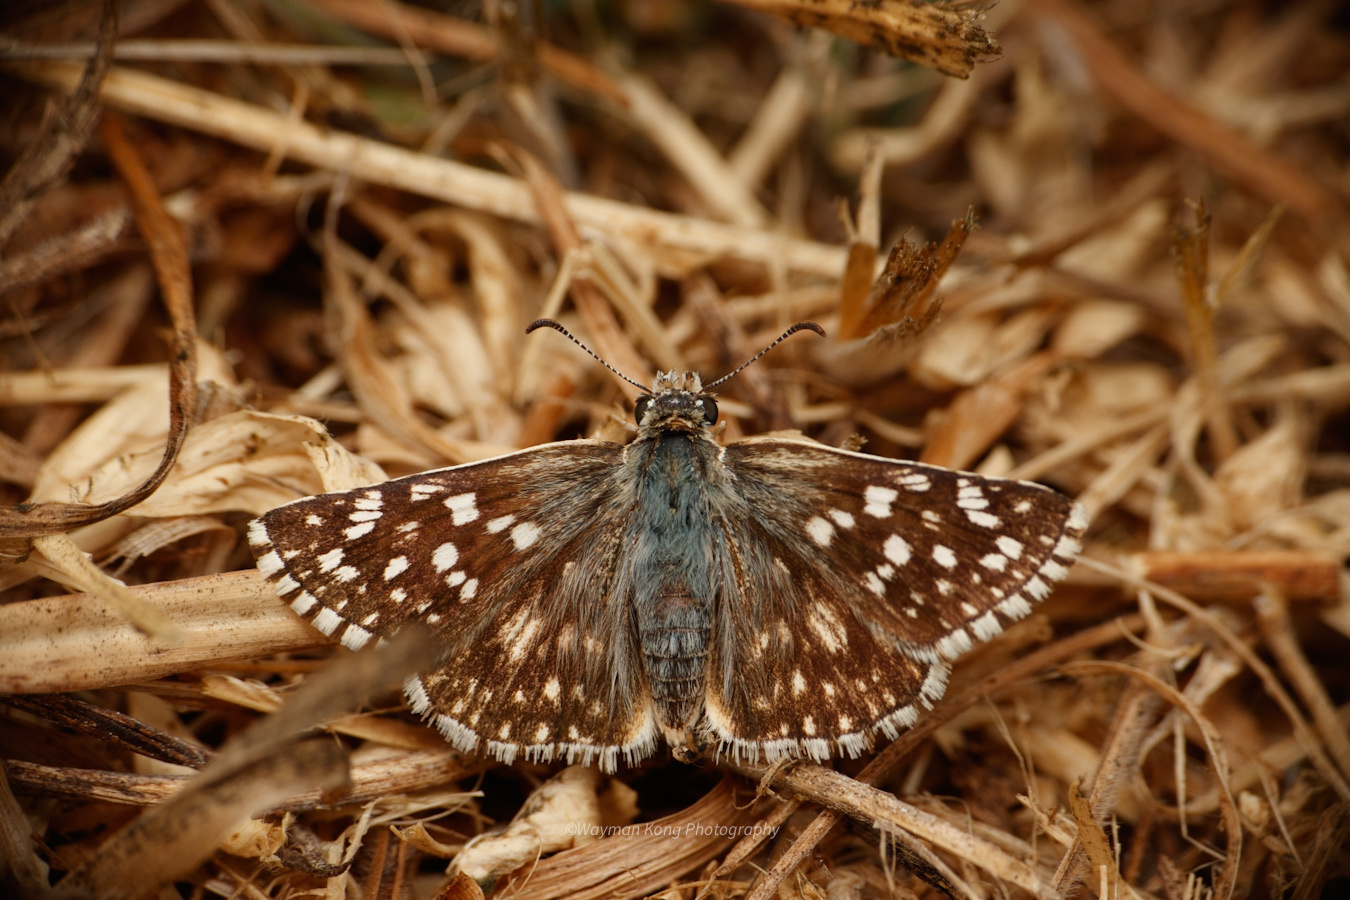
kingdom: Animalia
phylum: Arthropoda
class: Insecta
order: Lepidoptera
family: Hesperiidae
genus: Heliopetes
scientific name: Heliopetes americanus
